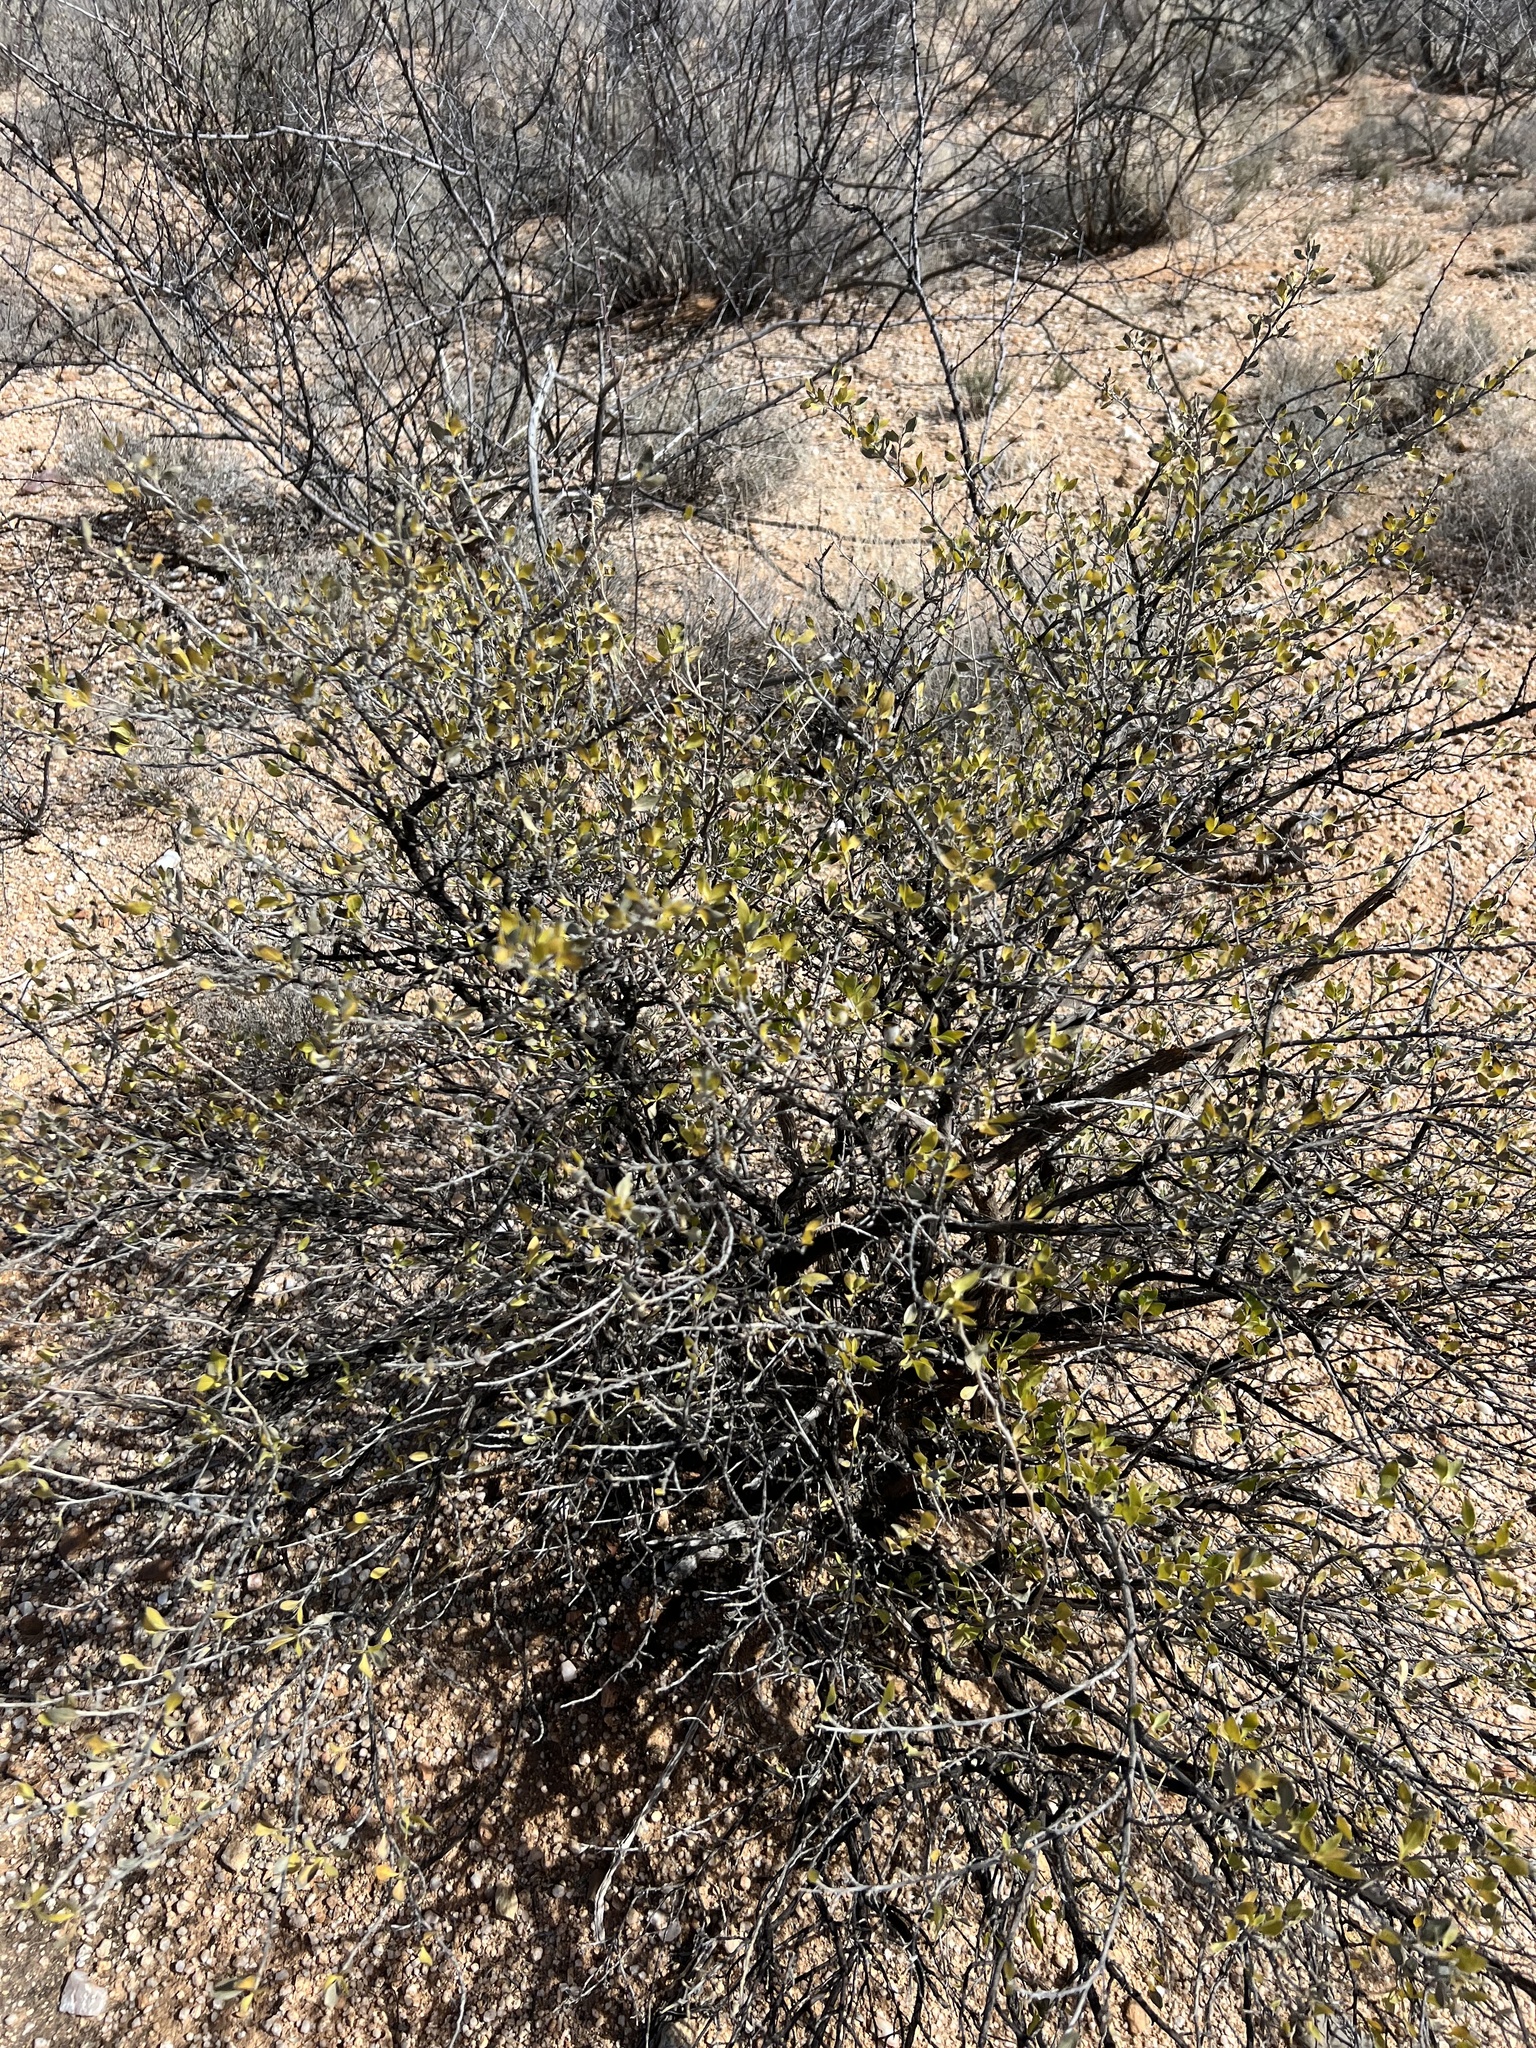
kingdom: Plantae
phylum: Tracheophyta
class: Magnoliopsida
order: Asterales
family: Asteraceae
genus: Flourensia
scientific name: Flourensia cernua
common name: Varnishbush
